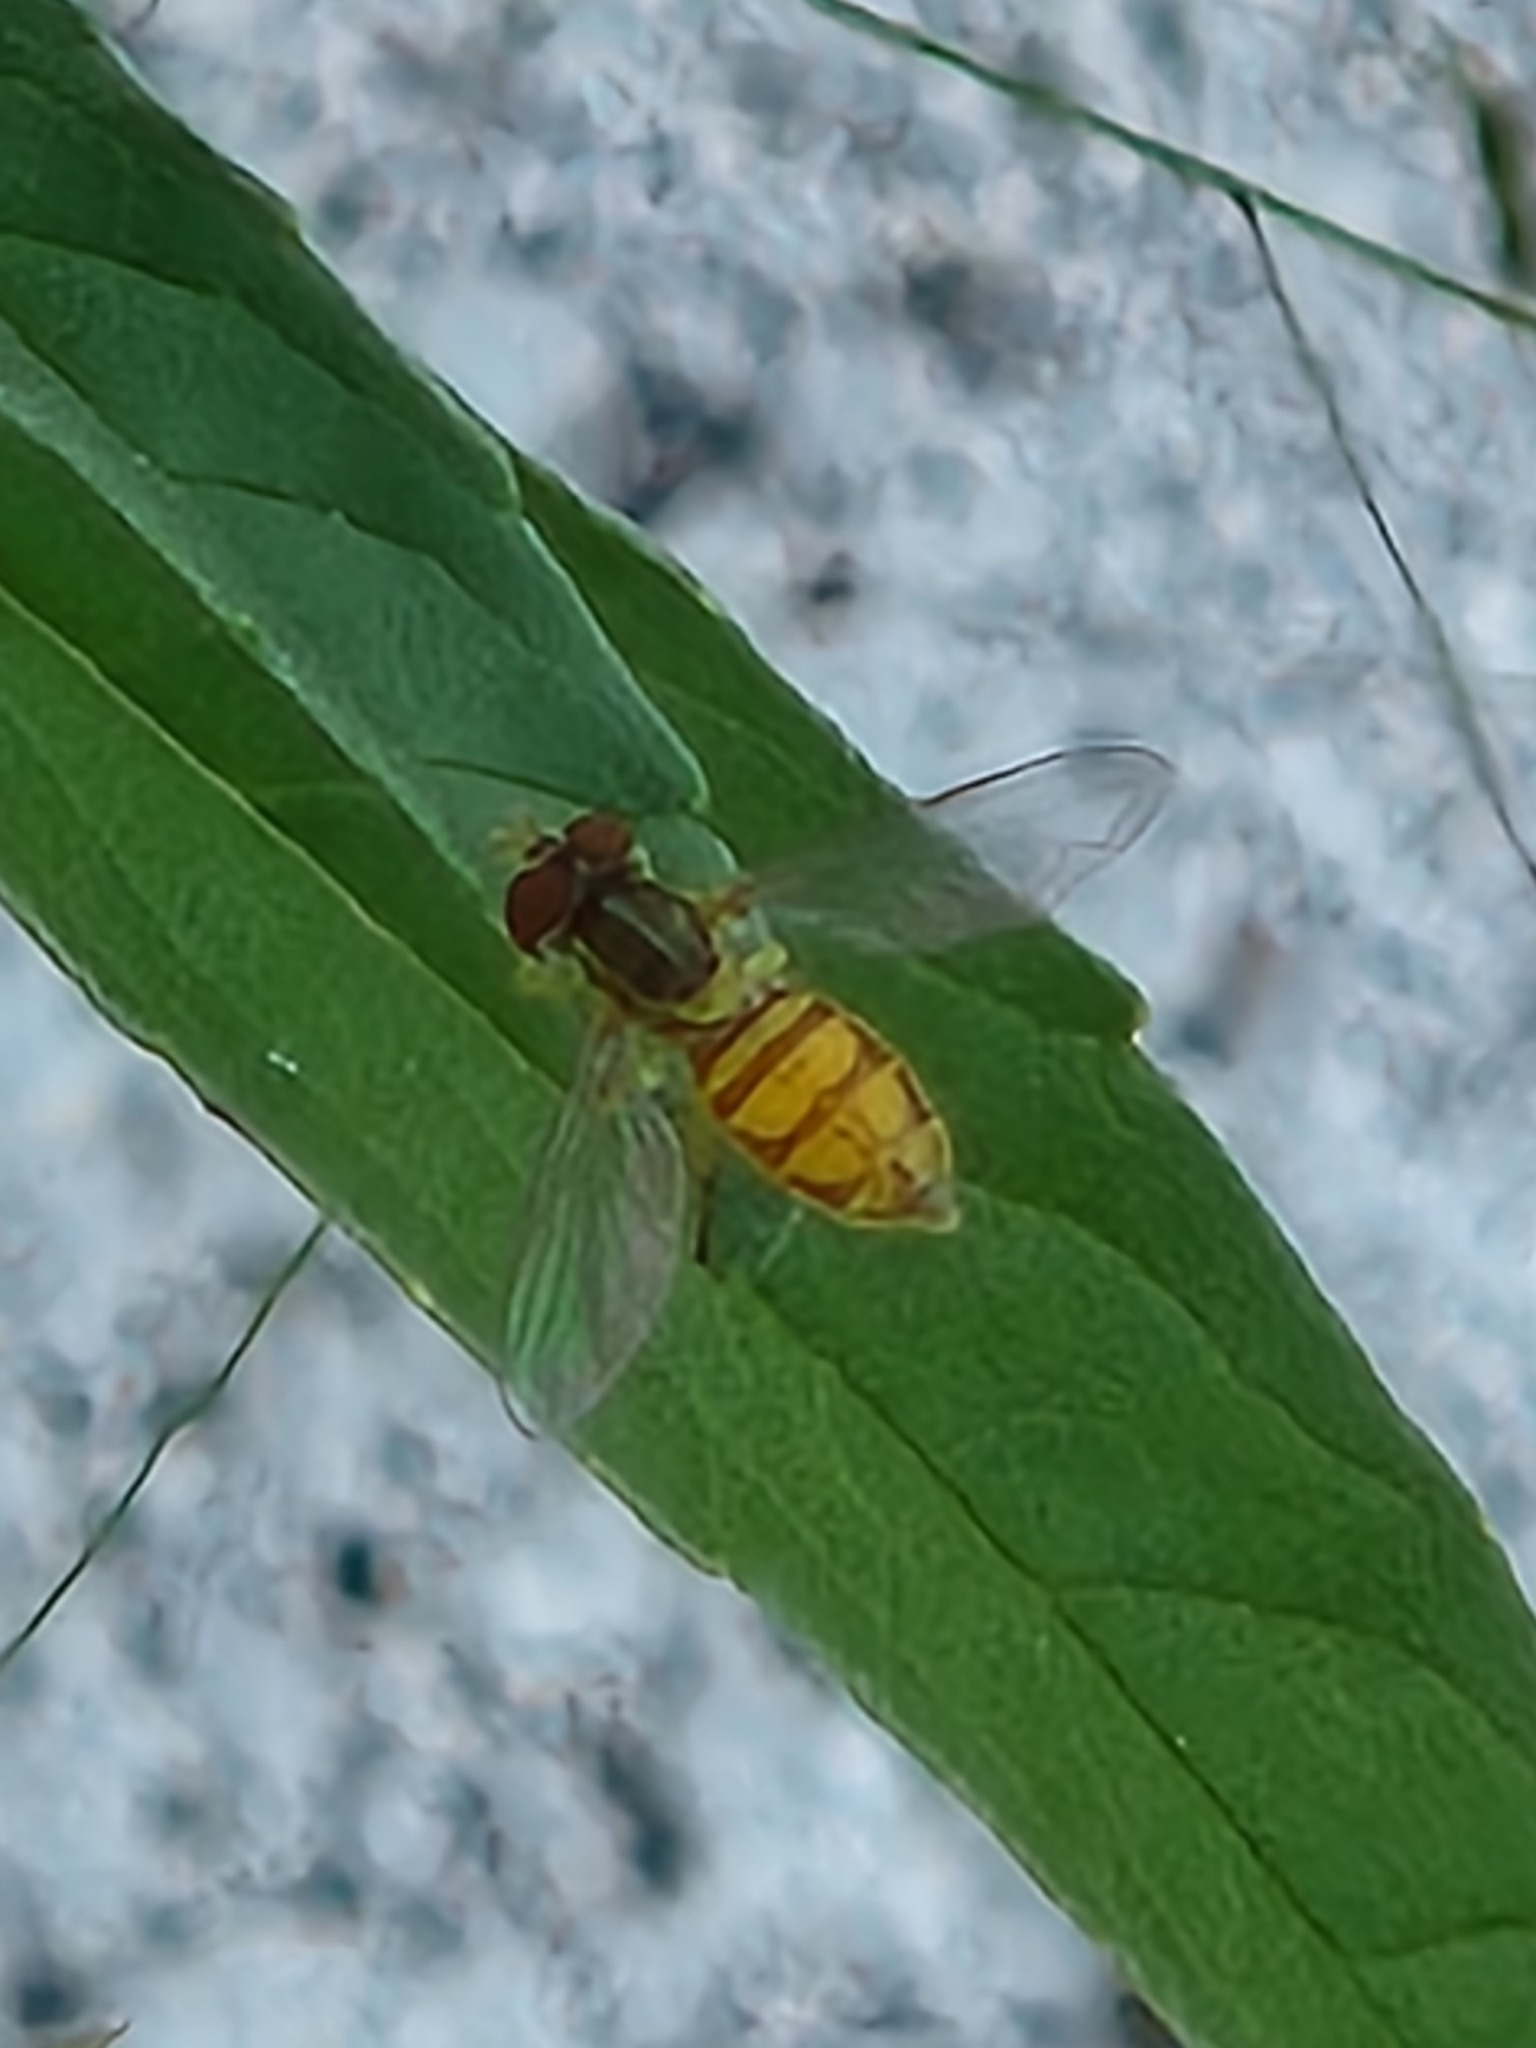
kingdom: Animalia
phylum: Arthropoda
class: Insecta
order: Diptera
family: Syrphidae
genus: Toxomerus
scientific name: Toxomerus marginatus
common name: Syrphid fly
